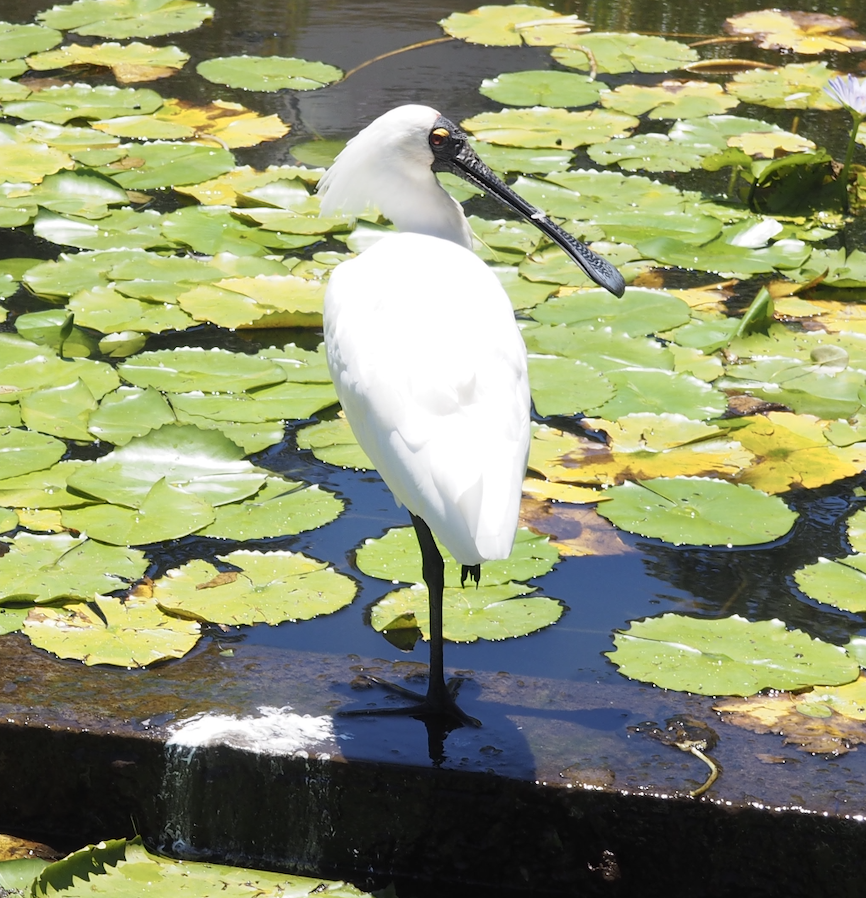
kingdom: Animalia
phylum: Chordata
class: Aves
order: Pelecaniformes
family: Threskiornithidae
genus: Platalea
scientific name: Platalea regia
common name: Royal spoonbill
